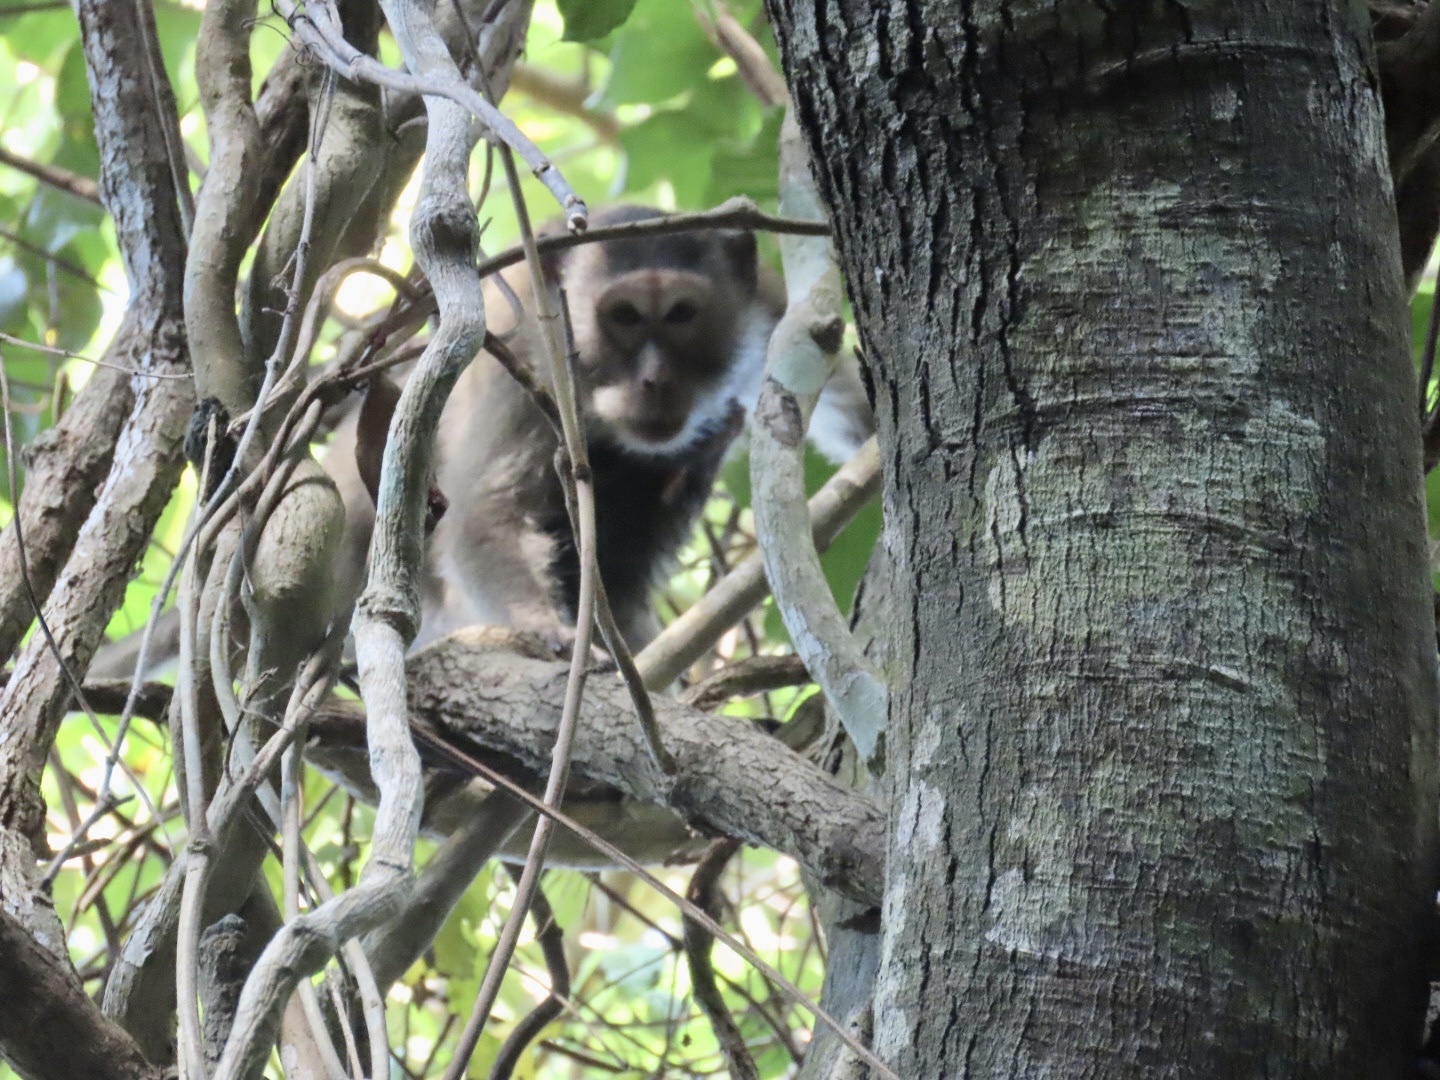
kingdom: Animalia
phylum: Chordata
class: Mammalia
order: Primates
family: Cercopithecidae
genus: Macaca
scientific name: Macaca fascicularis
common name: Crab-eating macaque
